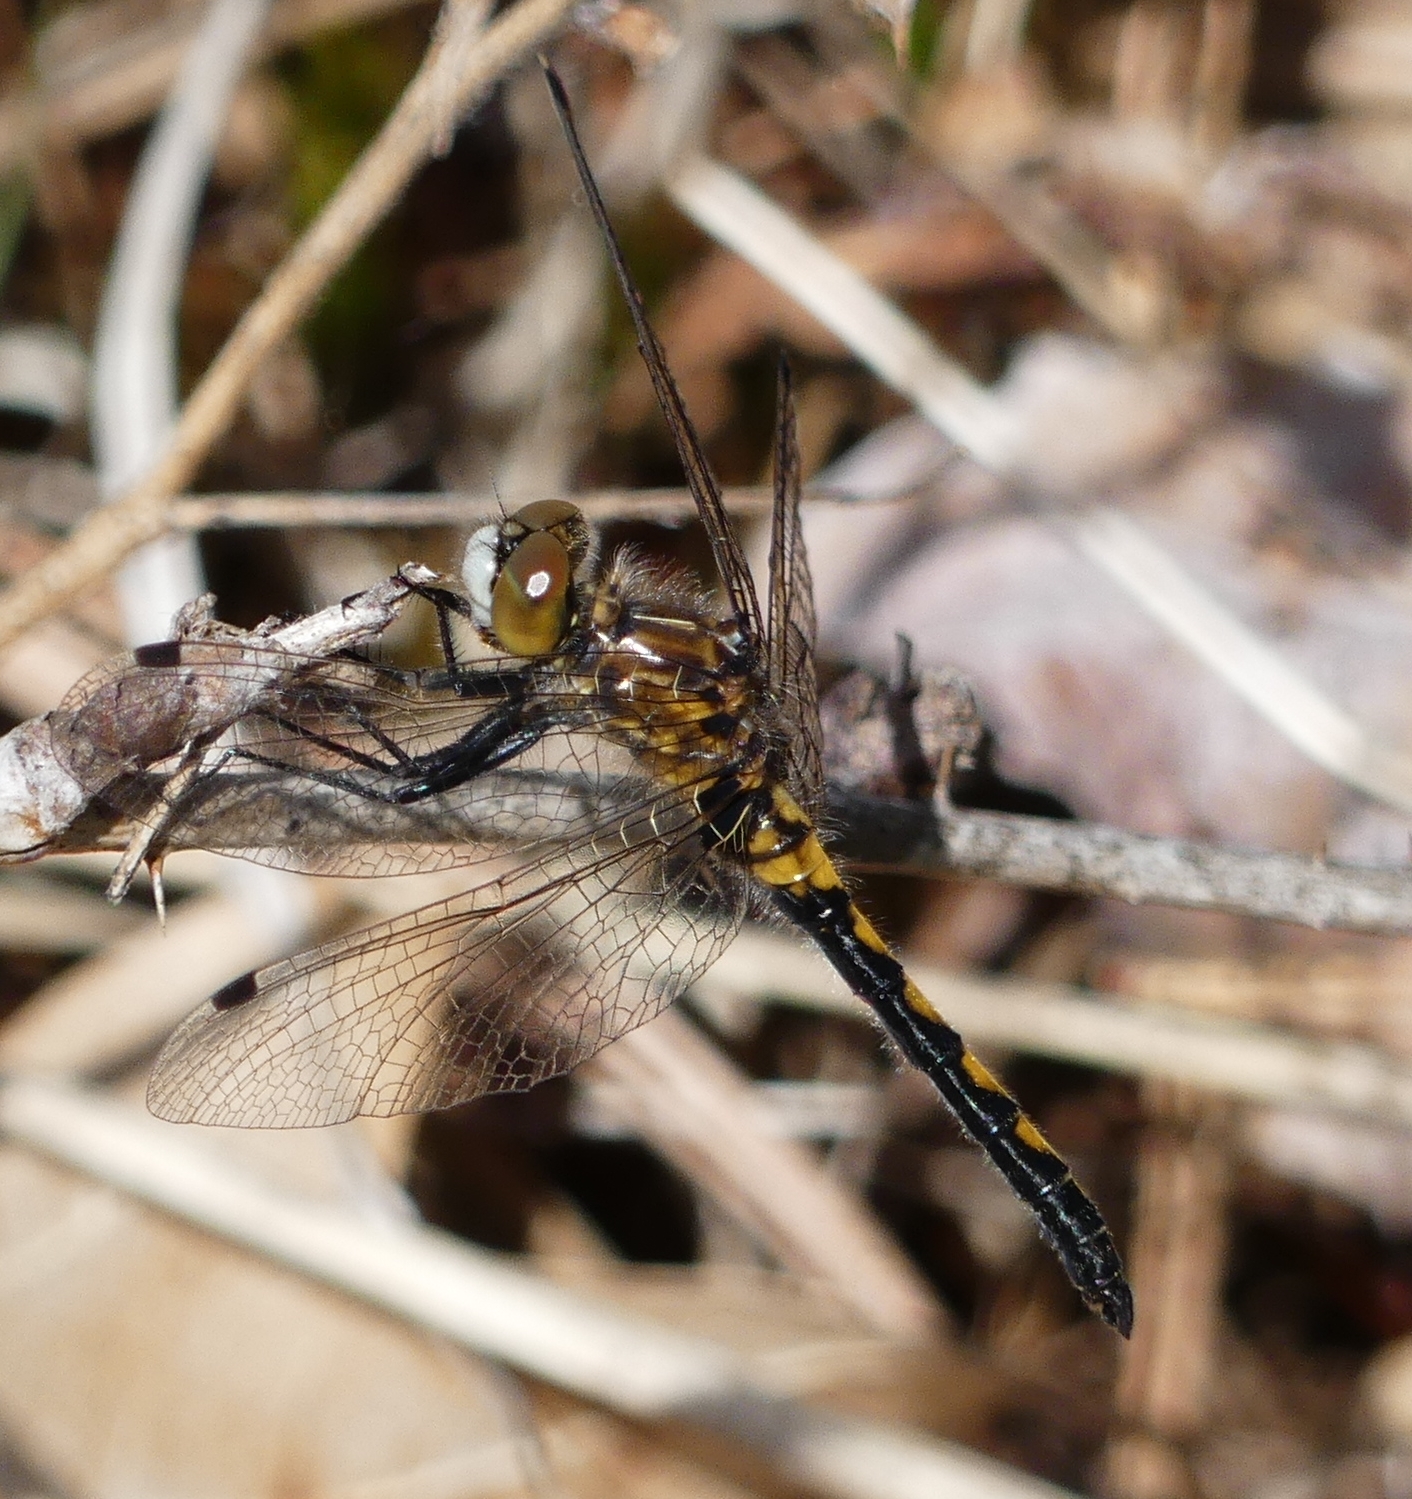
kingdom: Animalia
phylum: Arthropoda
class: Insecta
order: Odonata
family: Libellulidae
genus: Leucorrhinia
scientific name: Leucorrhinia hudsonica
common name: Hudsonian whiteface
